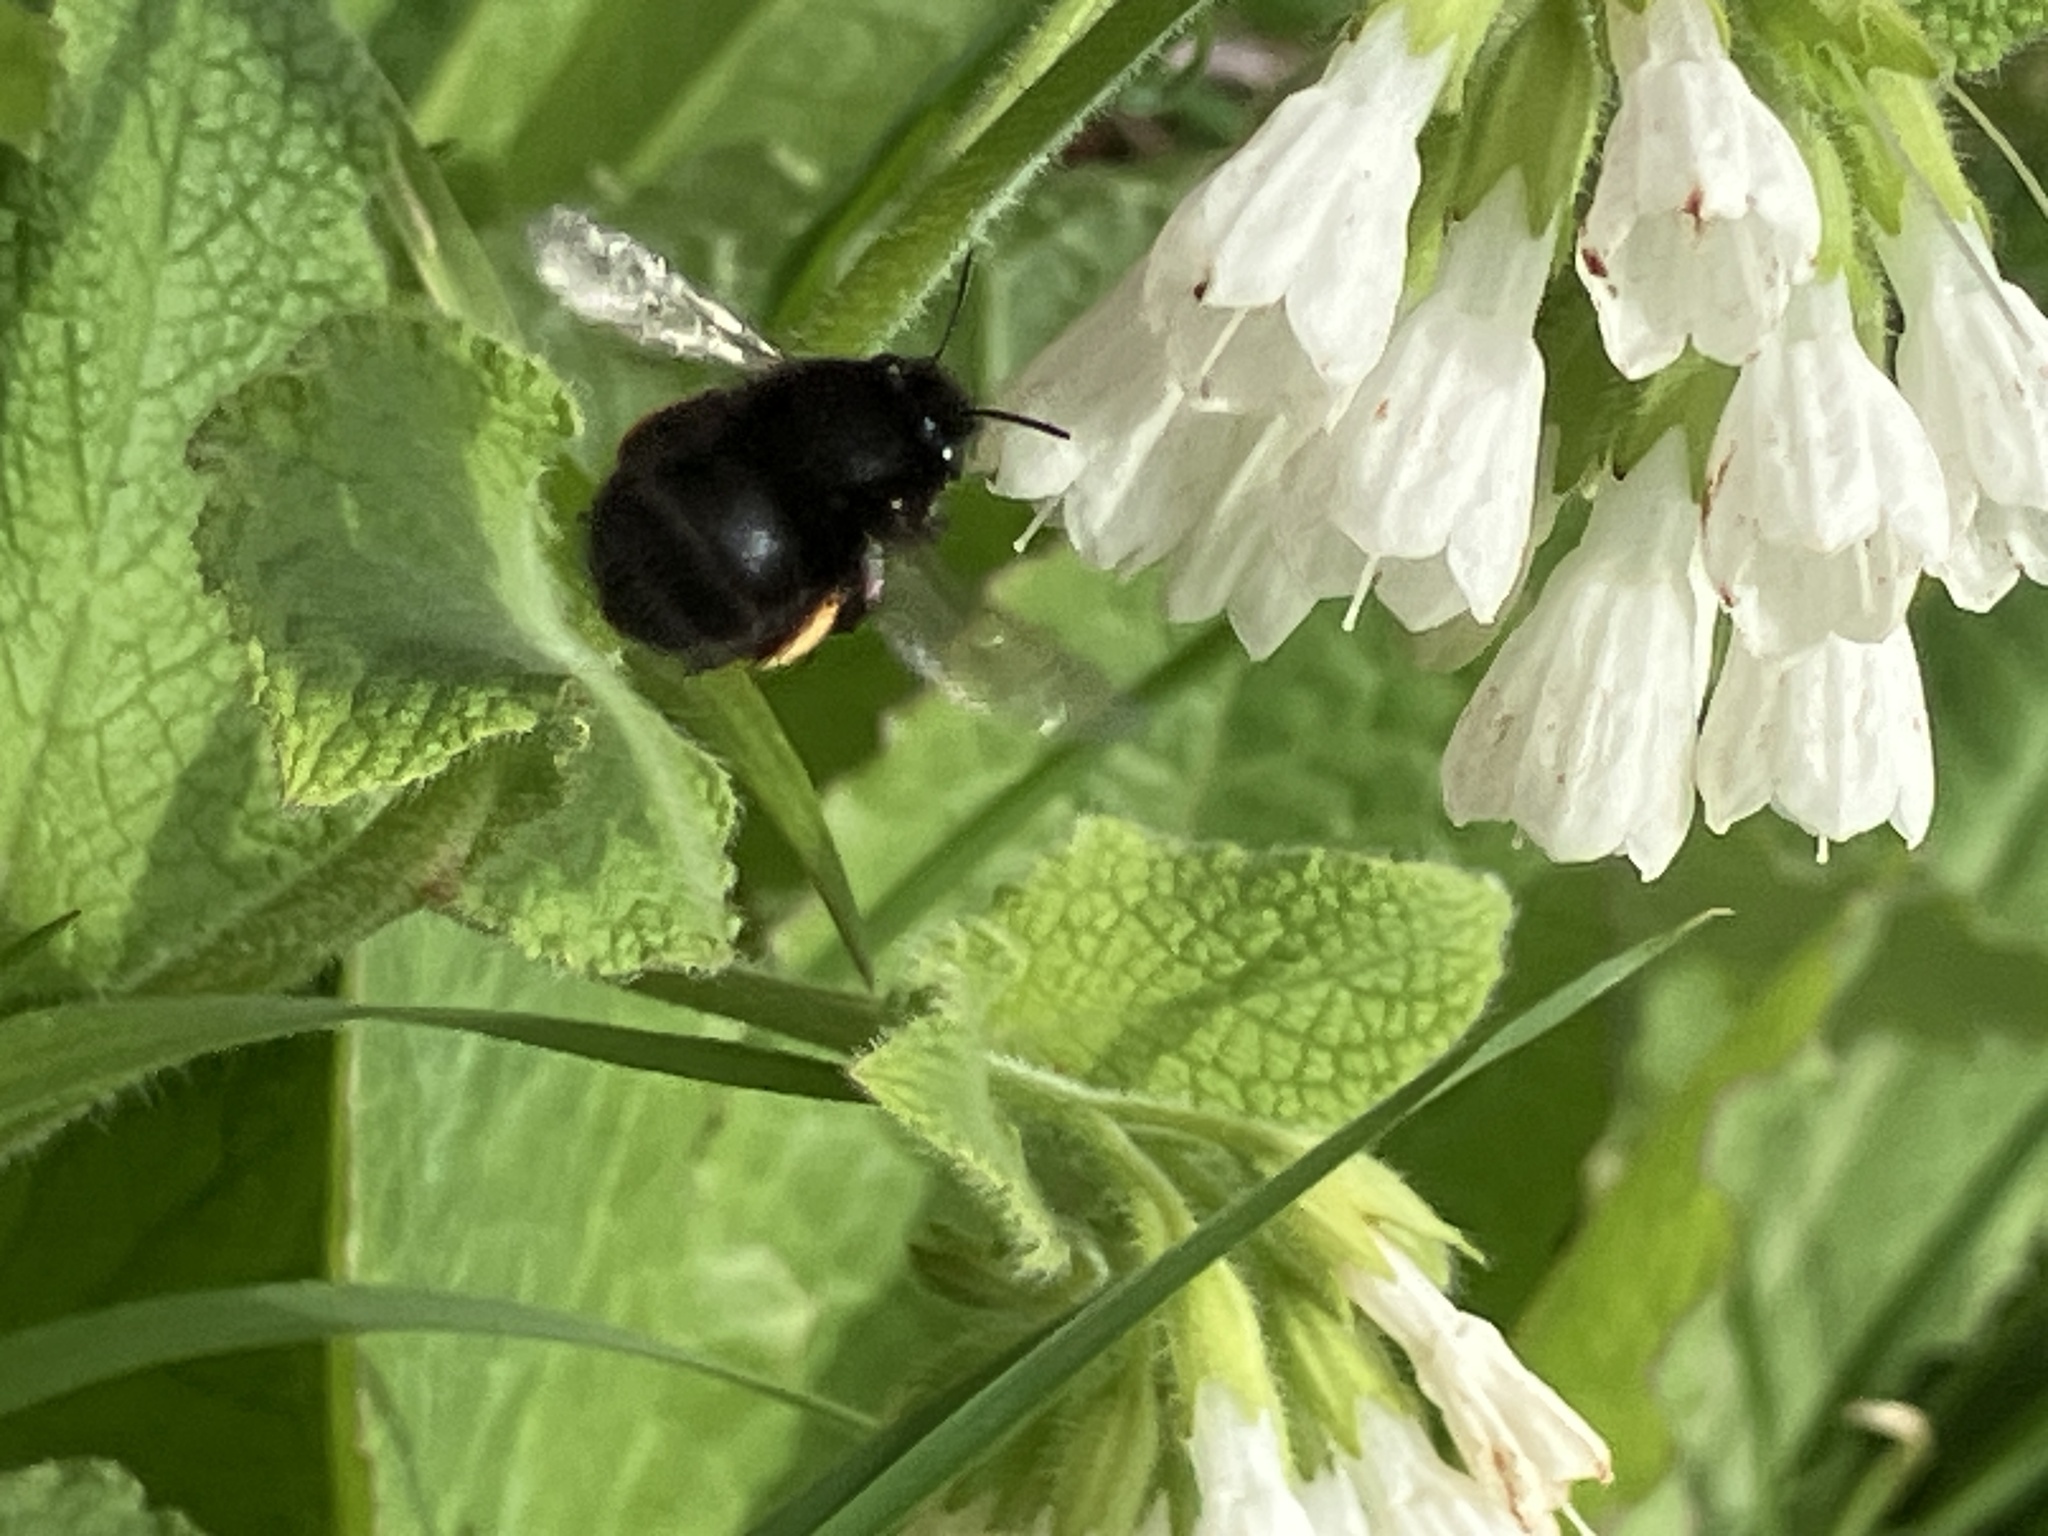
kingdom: Animalia
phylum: Arthropoda
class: Insecta
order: Hymenoptera
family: Apidae
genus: Anthophora
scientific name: Anthophora plumipes
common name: Hairy-footed flower bee
